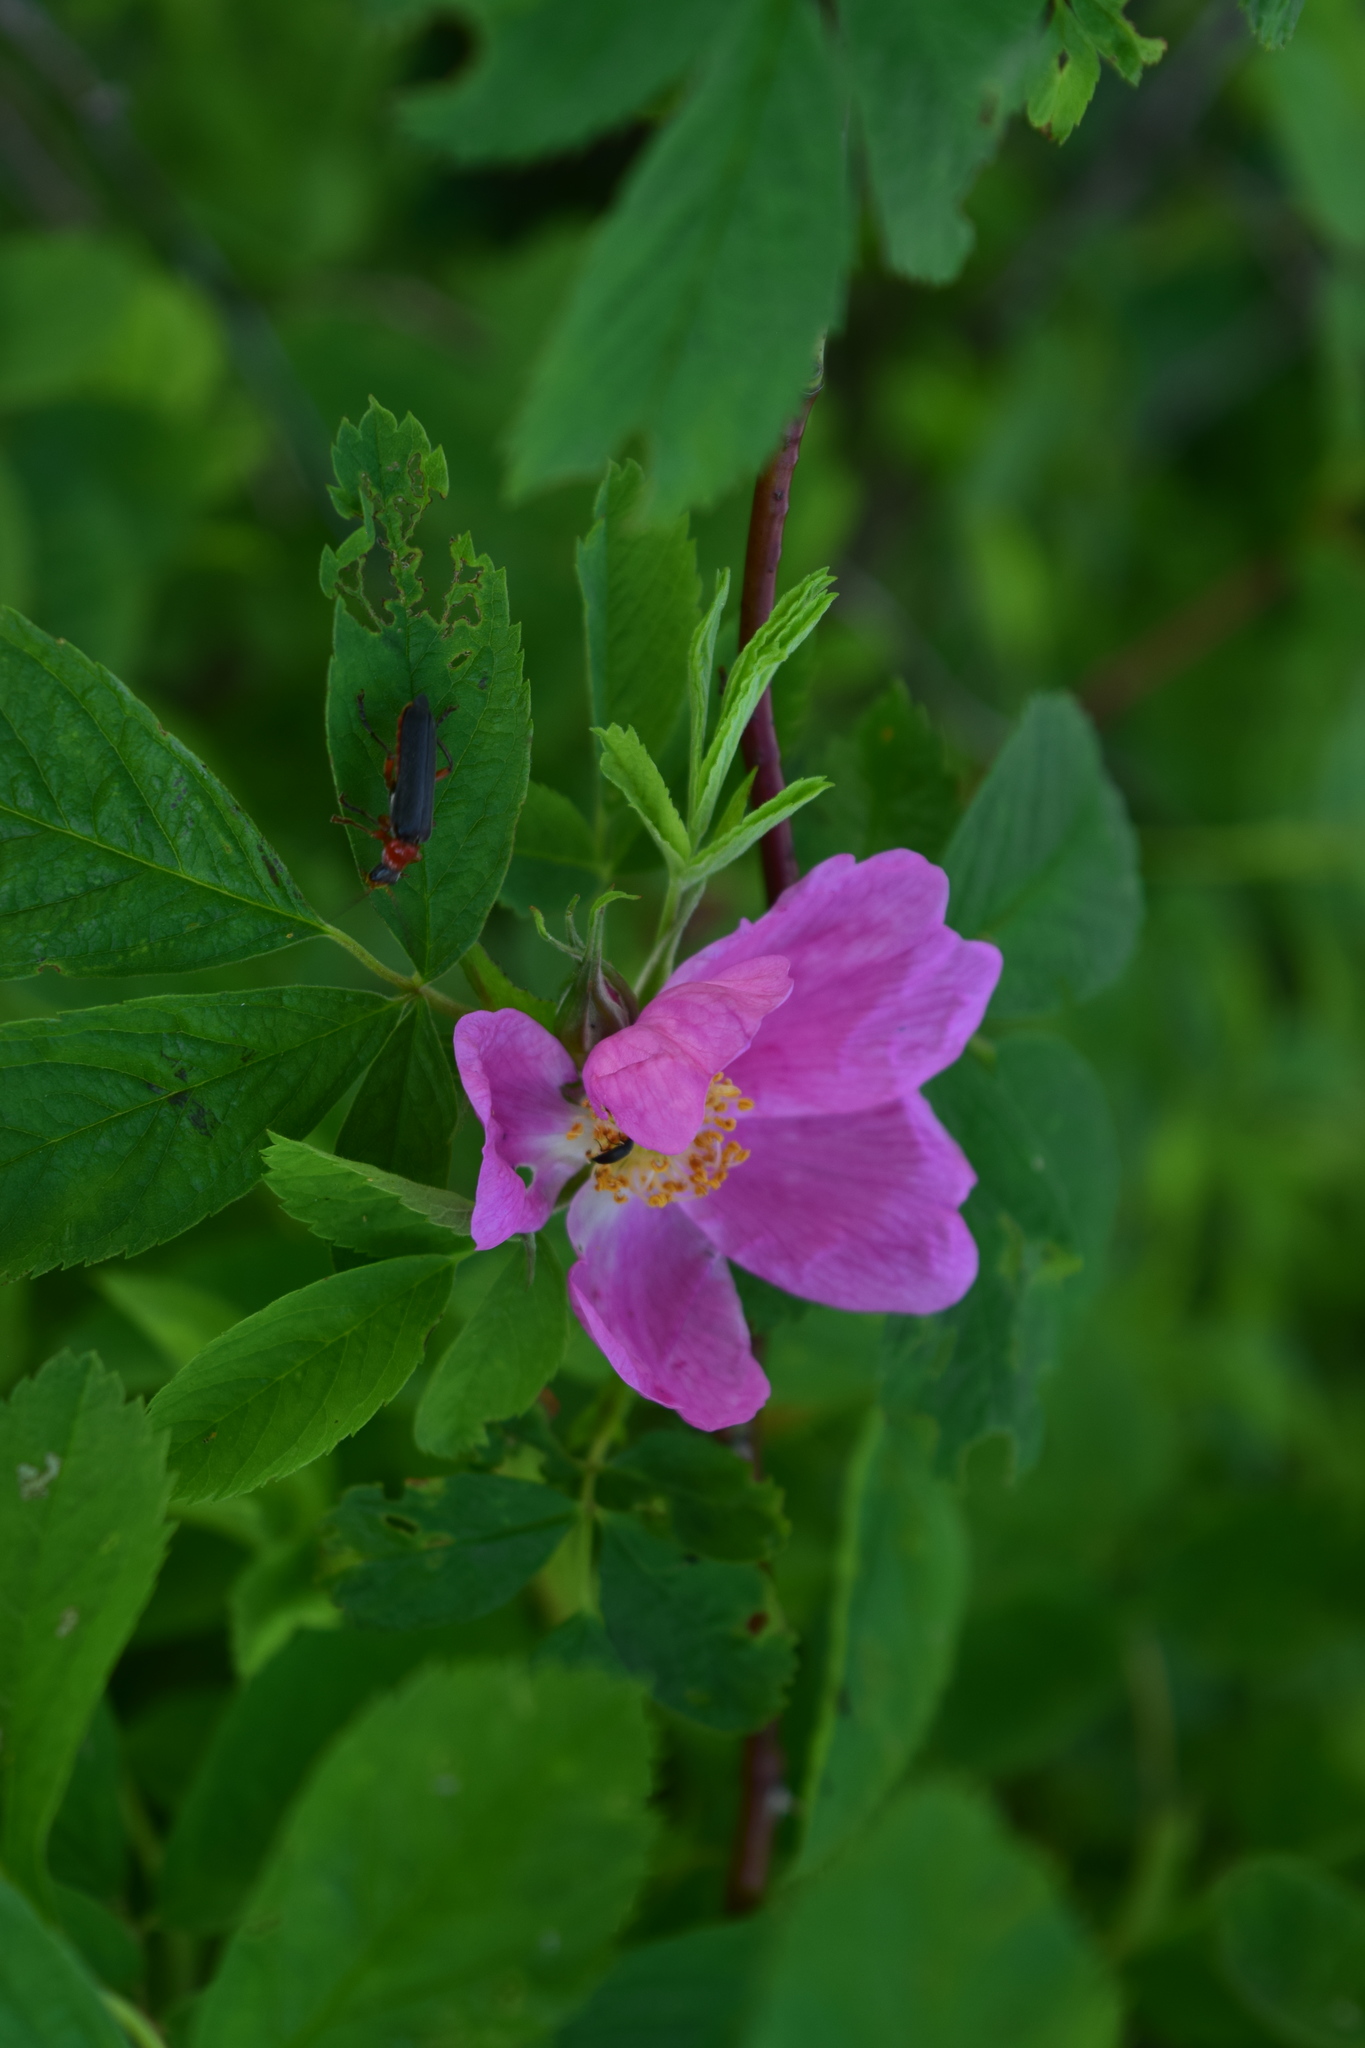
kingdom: Plantae
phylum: Tracheophyta
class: Magnoliopsida
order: Rosales
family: Rosaceae
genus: Rosa
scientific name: Rosa majalis
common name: Cinnamon rose
